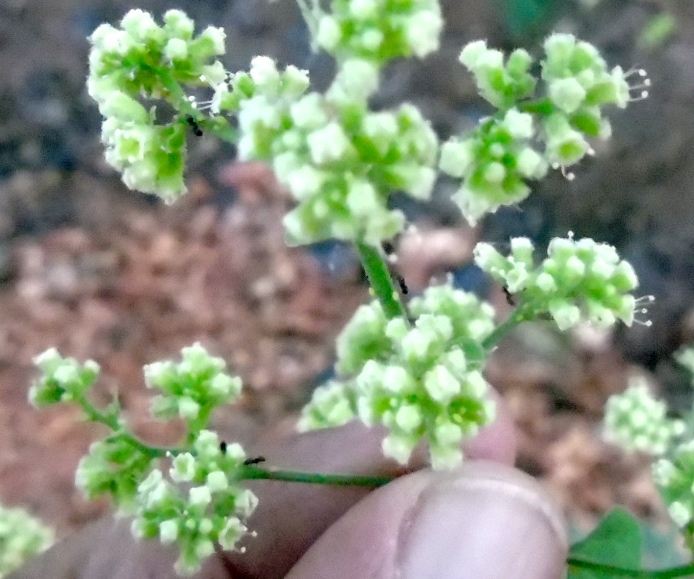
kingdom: Plantae
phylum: Tracheophyta
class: Magnoliopsida
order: Caryophyllales
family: Nyctaginaceae
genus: Boerhavia
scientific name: Boerhavia
